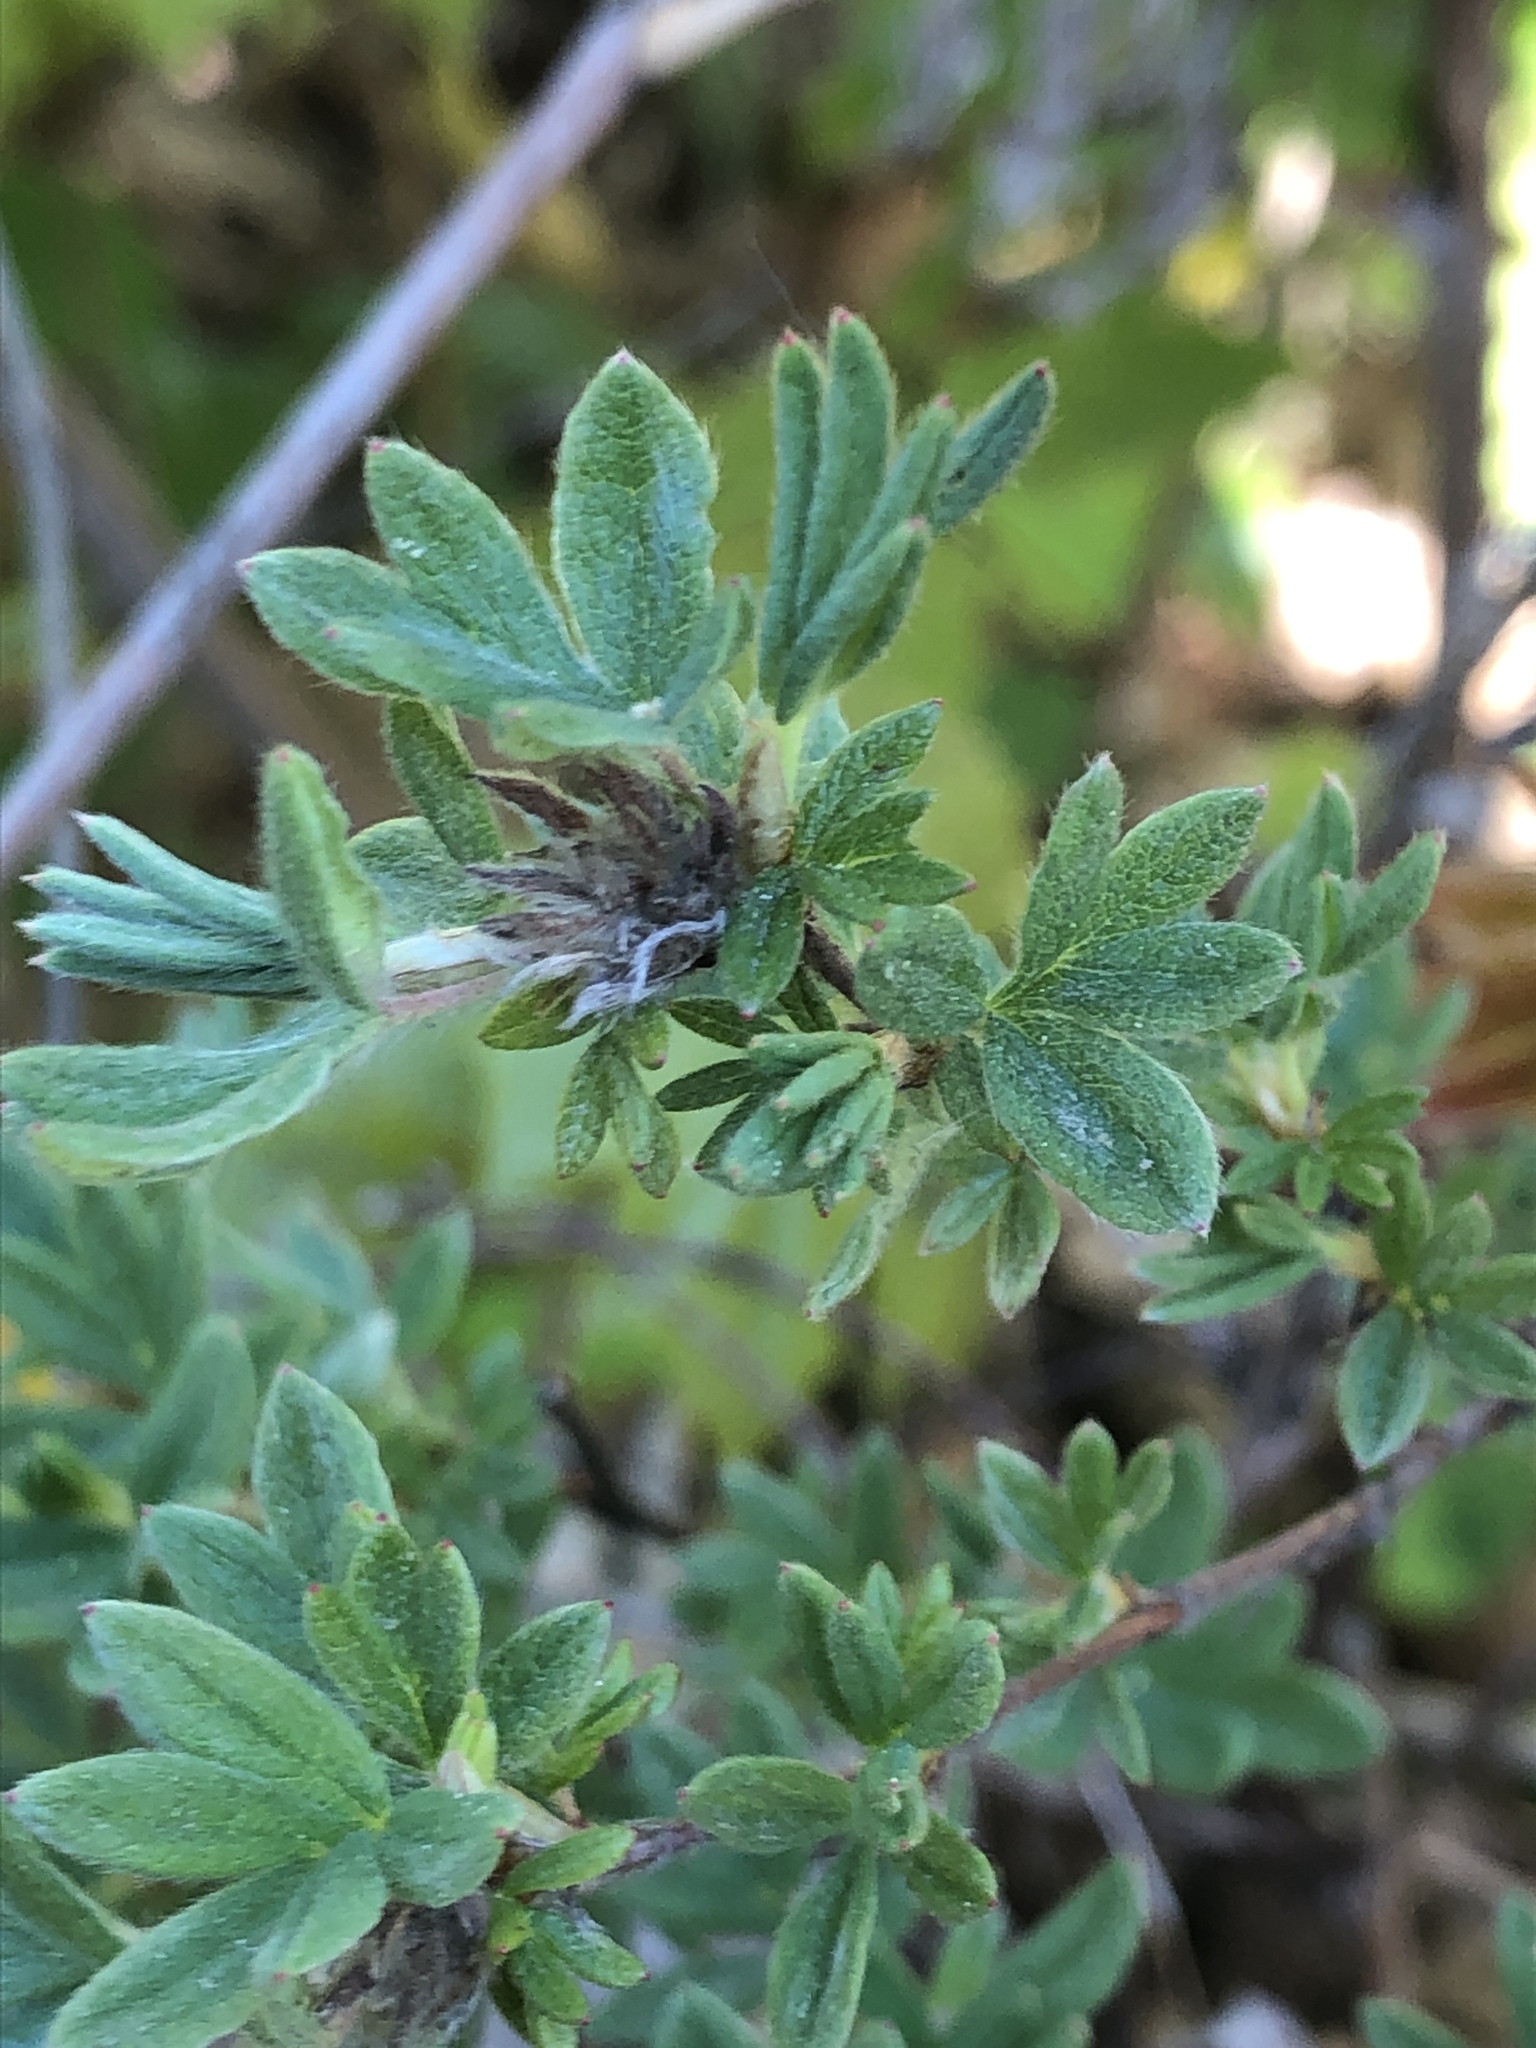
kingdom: Plantae
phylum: Tracheophyta
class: Magnoliopsida
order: Rosales
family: Rosaceae
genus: Dasiphora
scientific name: Dasiphora fruticosa
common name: Shrubby cinquefoil
